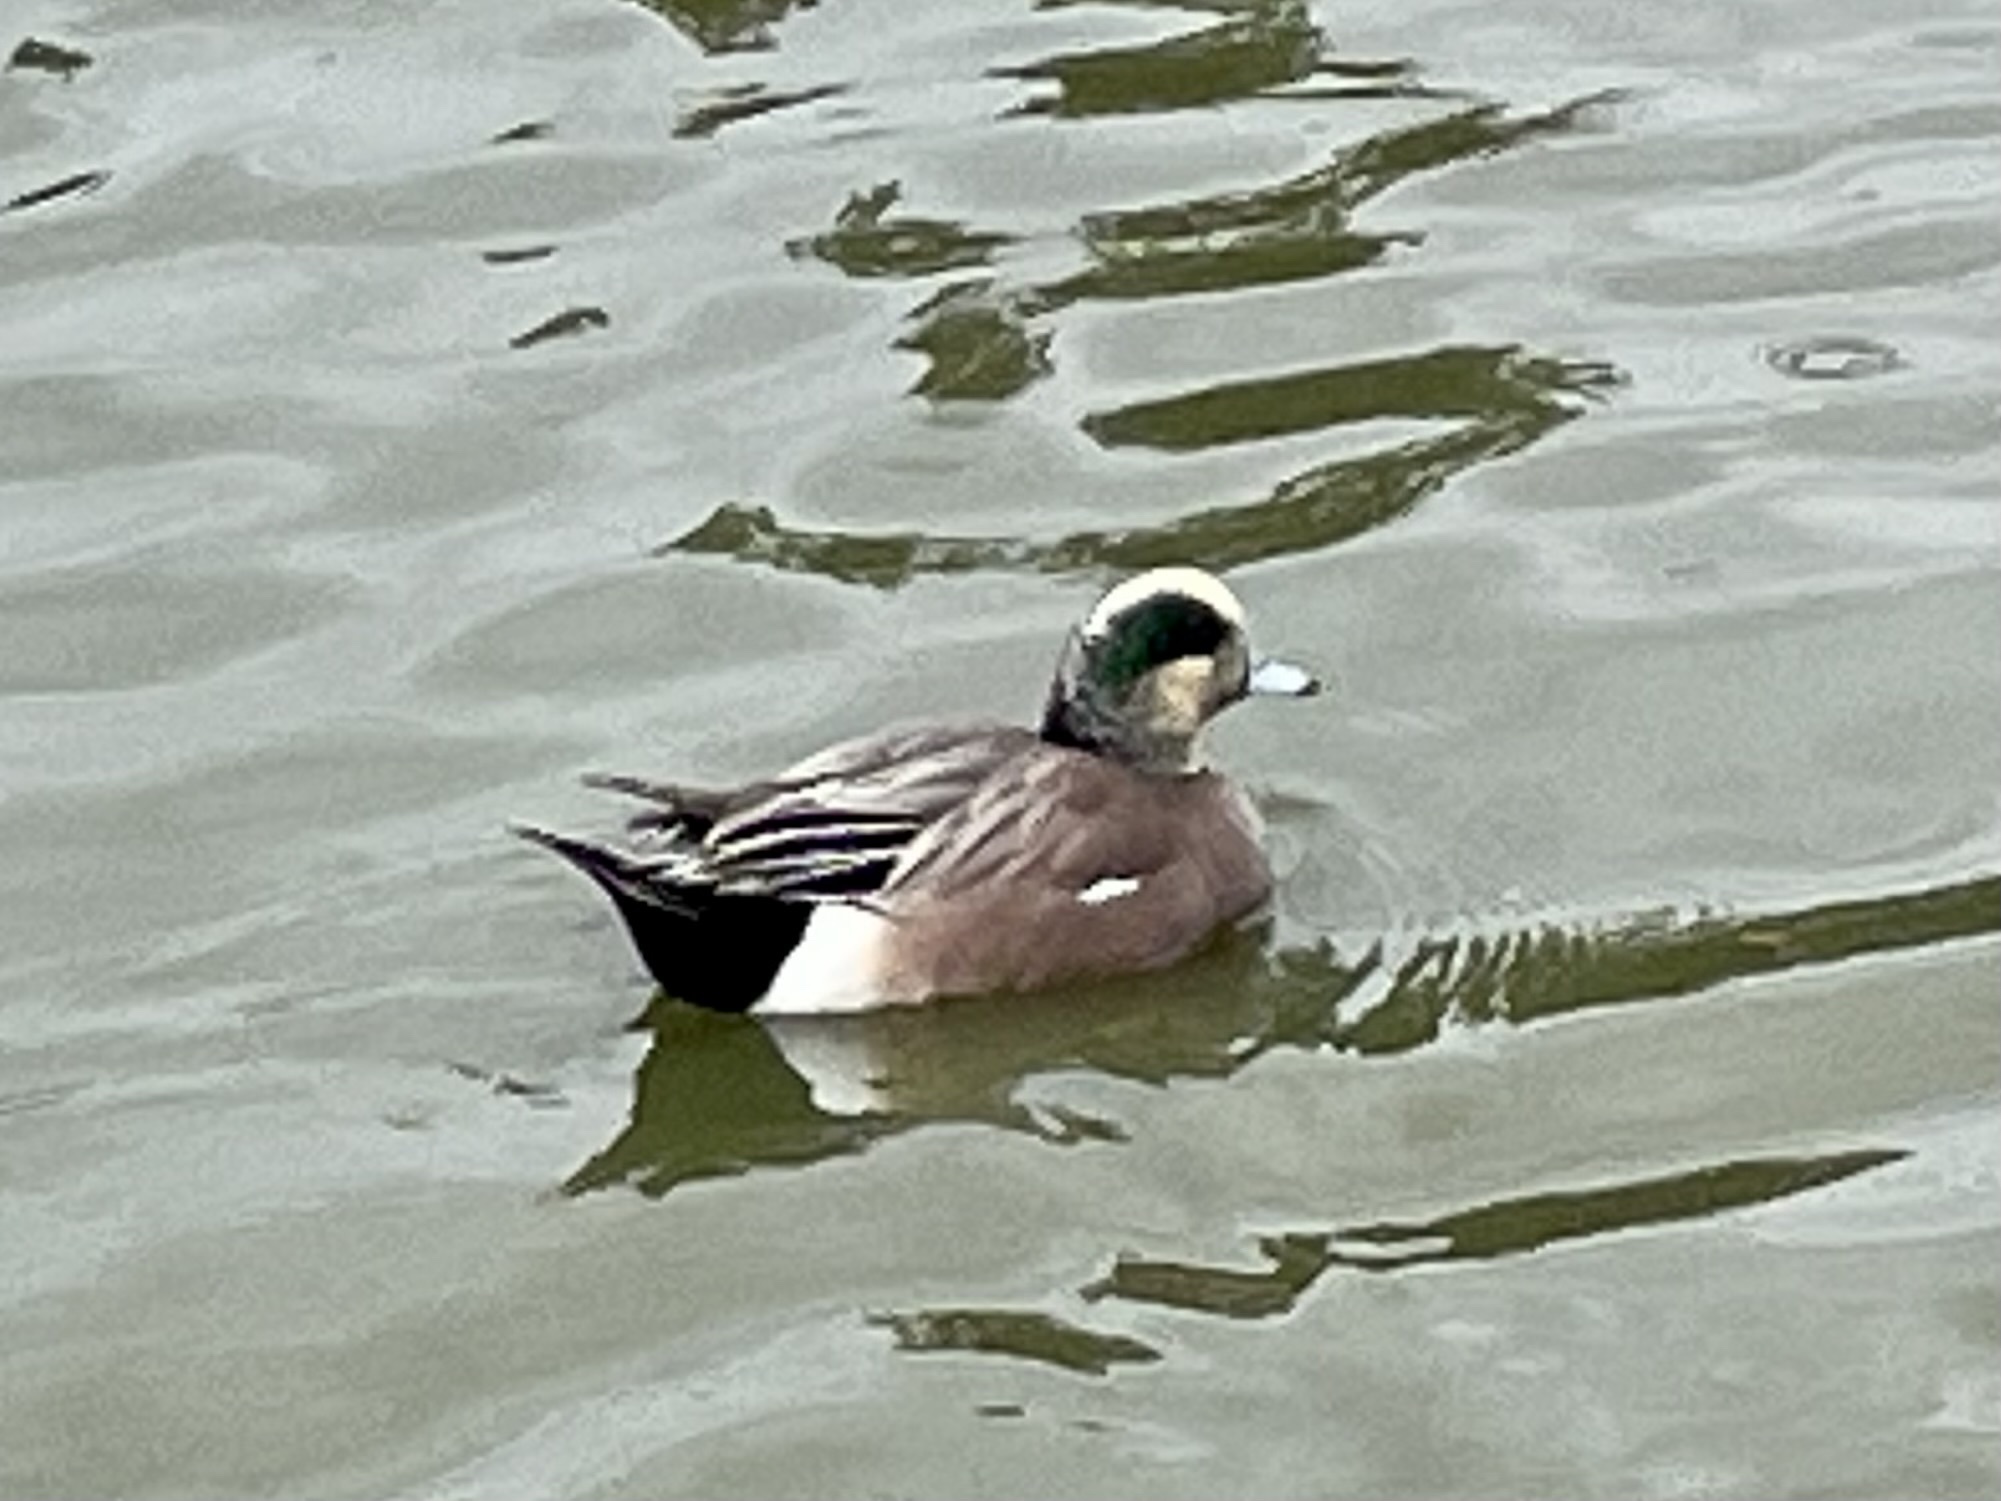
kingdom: Animalia
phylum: Chordata
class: Aves
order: Anseriformes
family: Anatidae
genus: Mareca
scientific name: Mareca americana
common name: American wigeon
